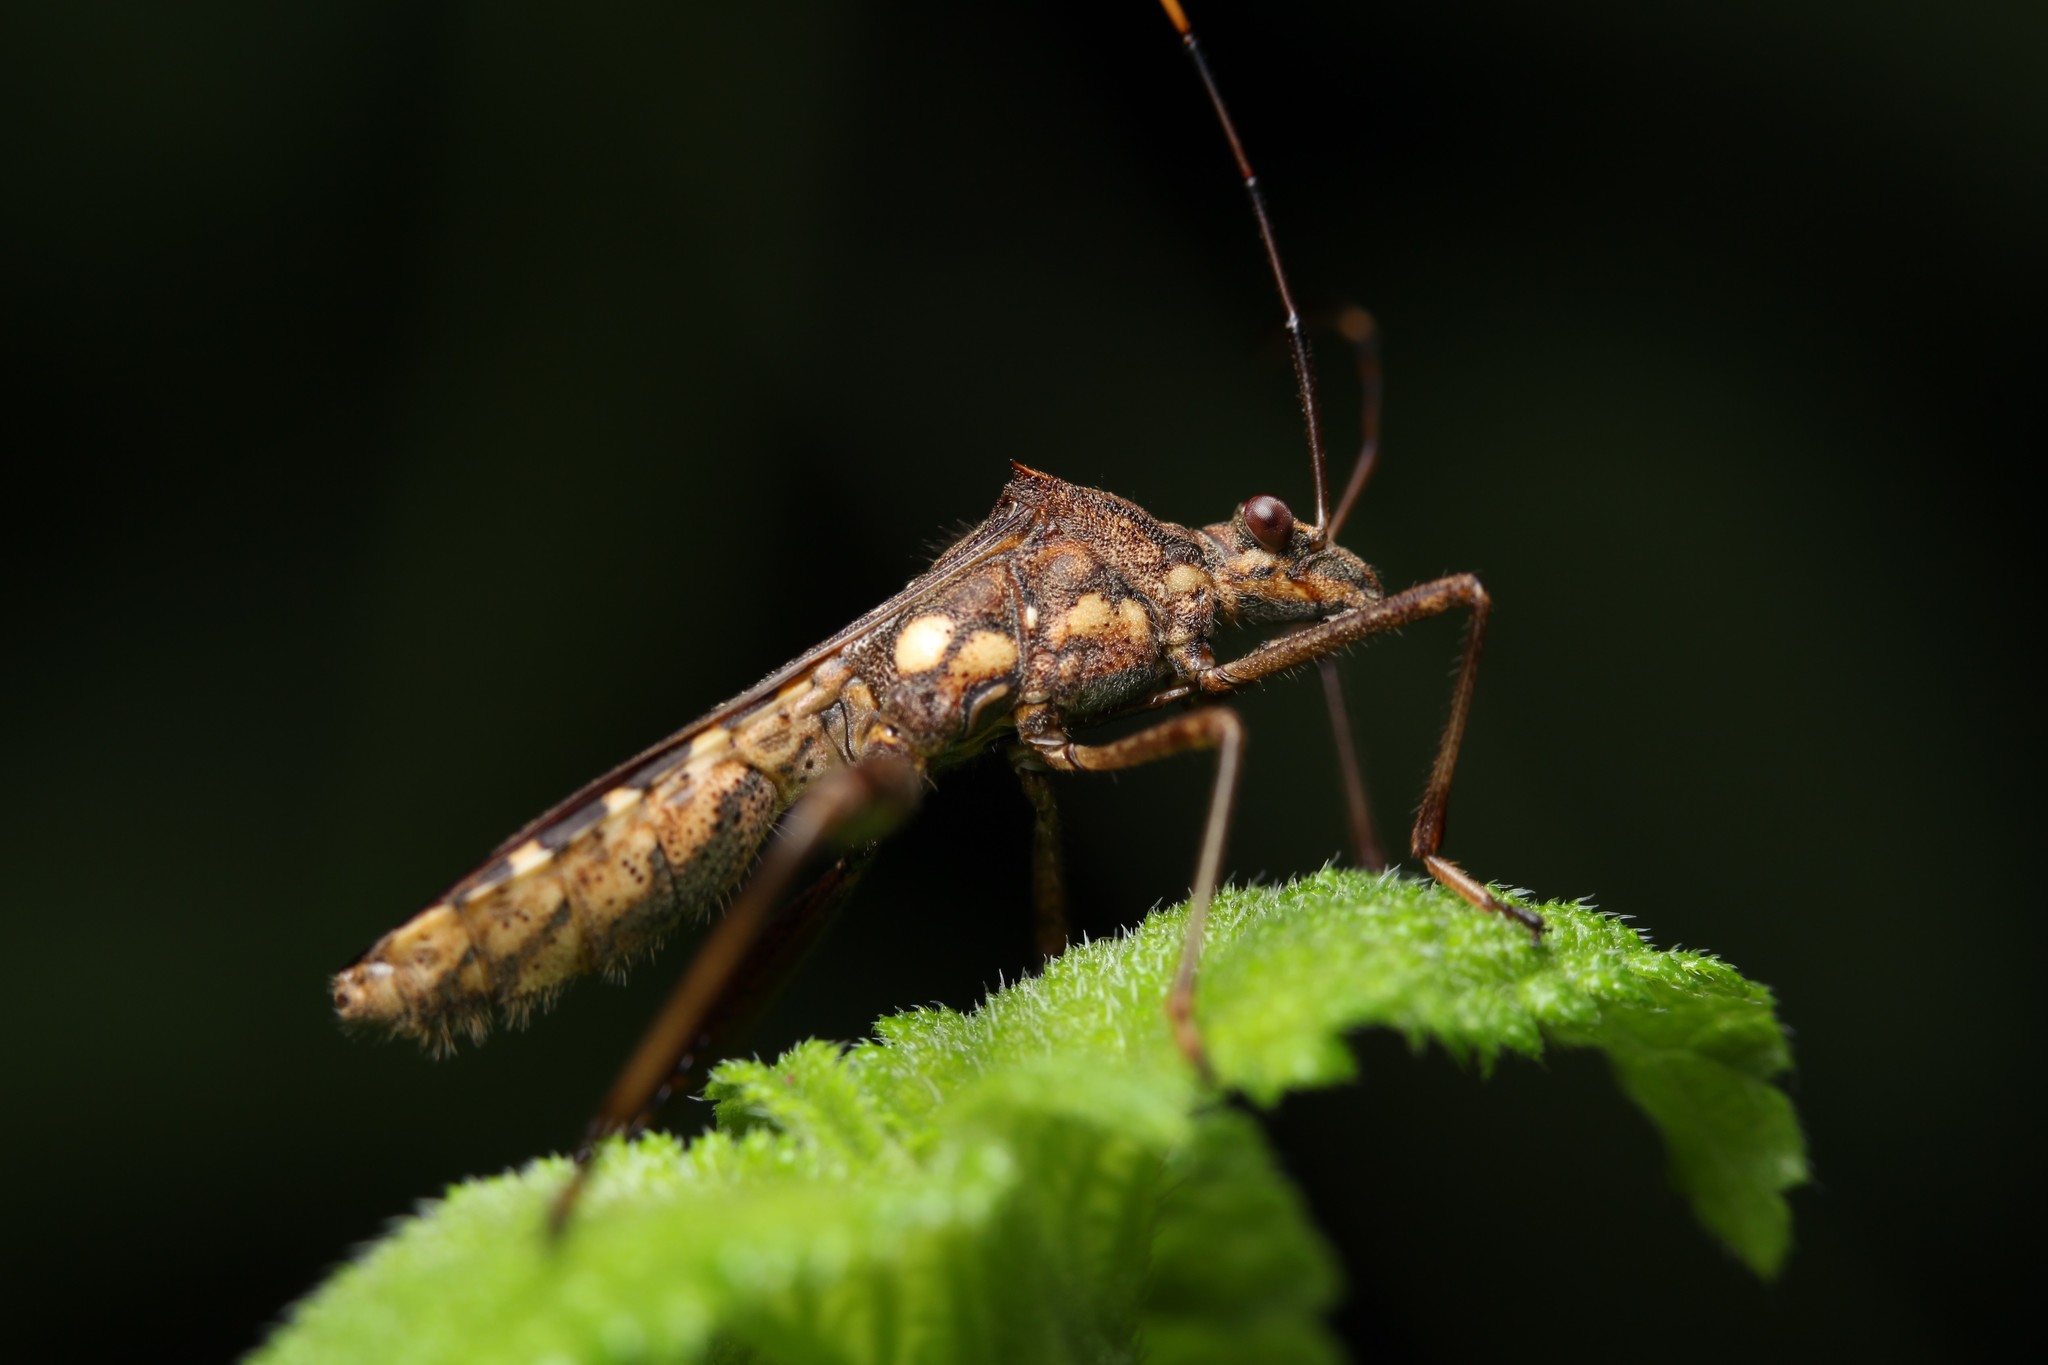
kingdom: Animalia
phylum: Arthropoda
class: Insecta
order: Hemiptera
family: Alydidae
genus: Riptortus
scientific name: Riptortus pedestris
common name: Bean bug
